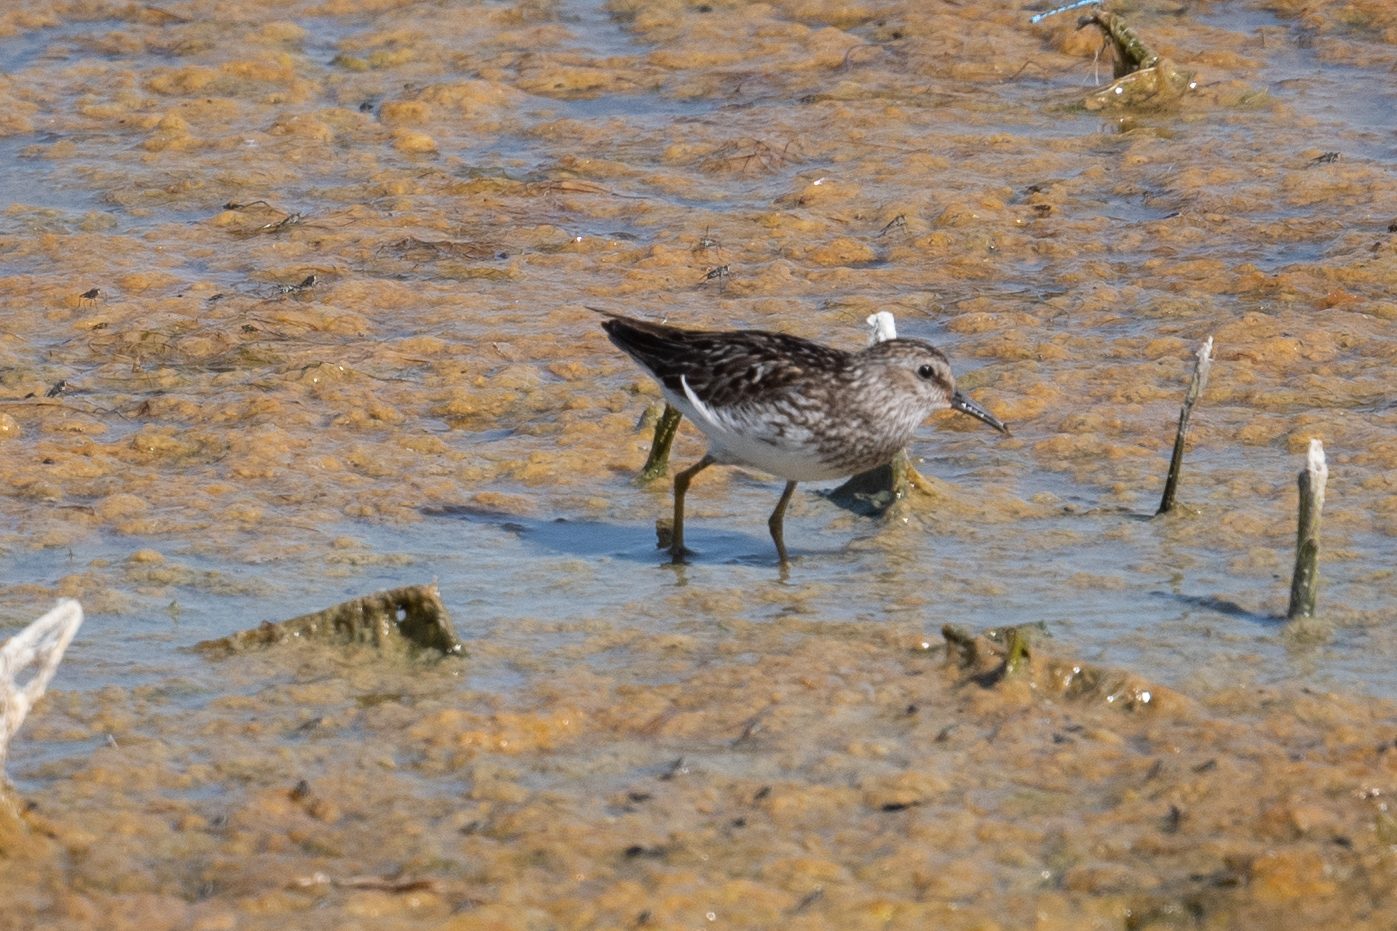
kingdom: Animalia
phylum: Chordata
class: Aves
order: Charadriiformes
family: Scolopacidae
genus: Calidris
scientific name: Calidris minutilla
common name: Least sandpiper
